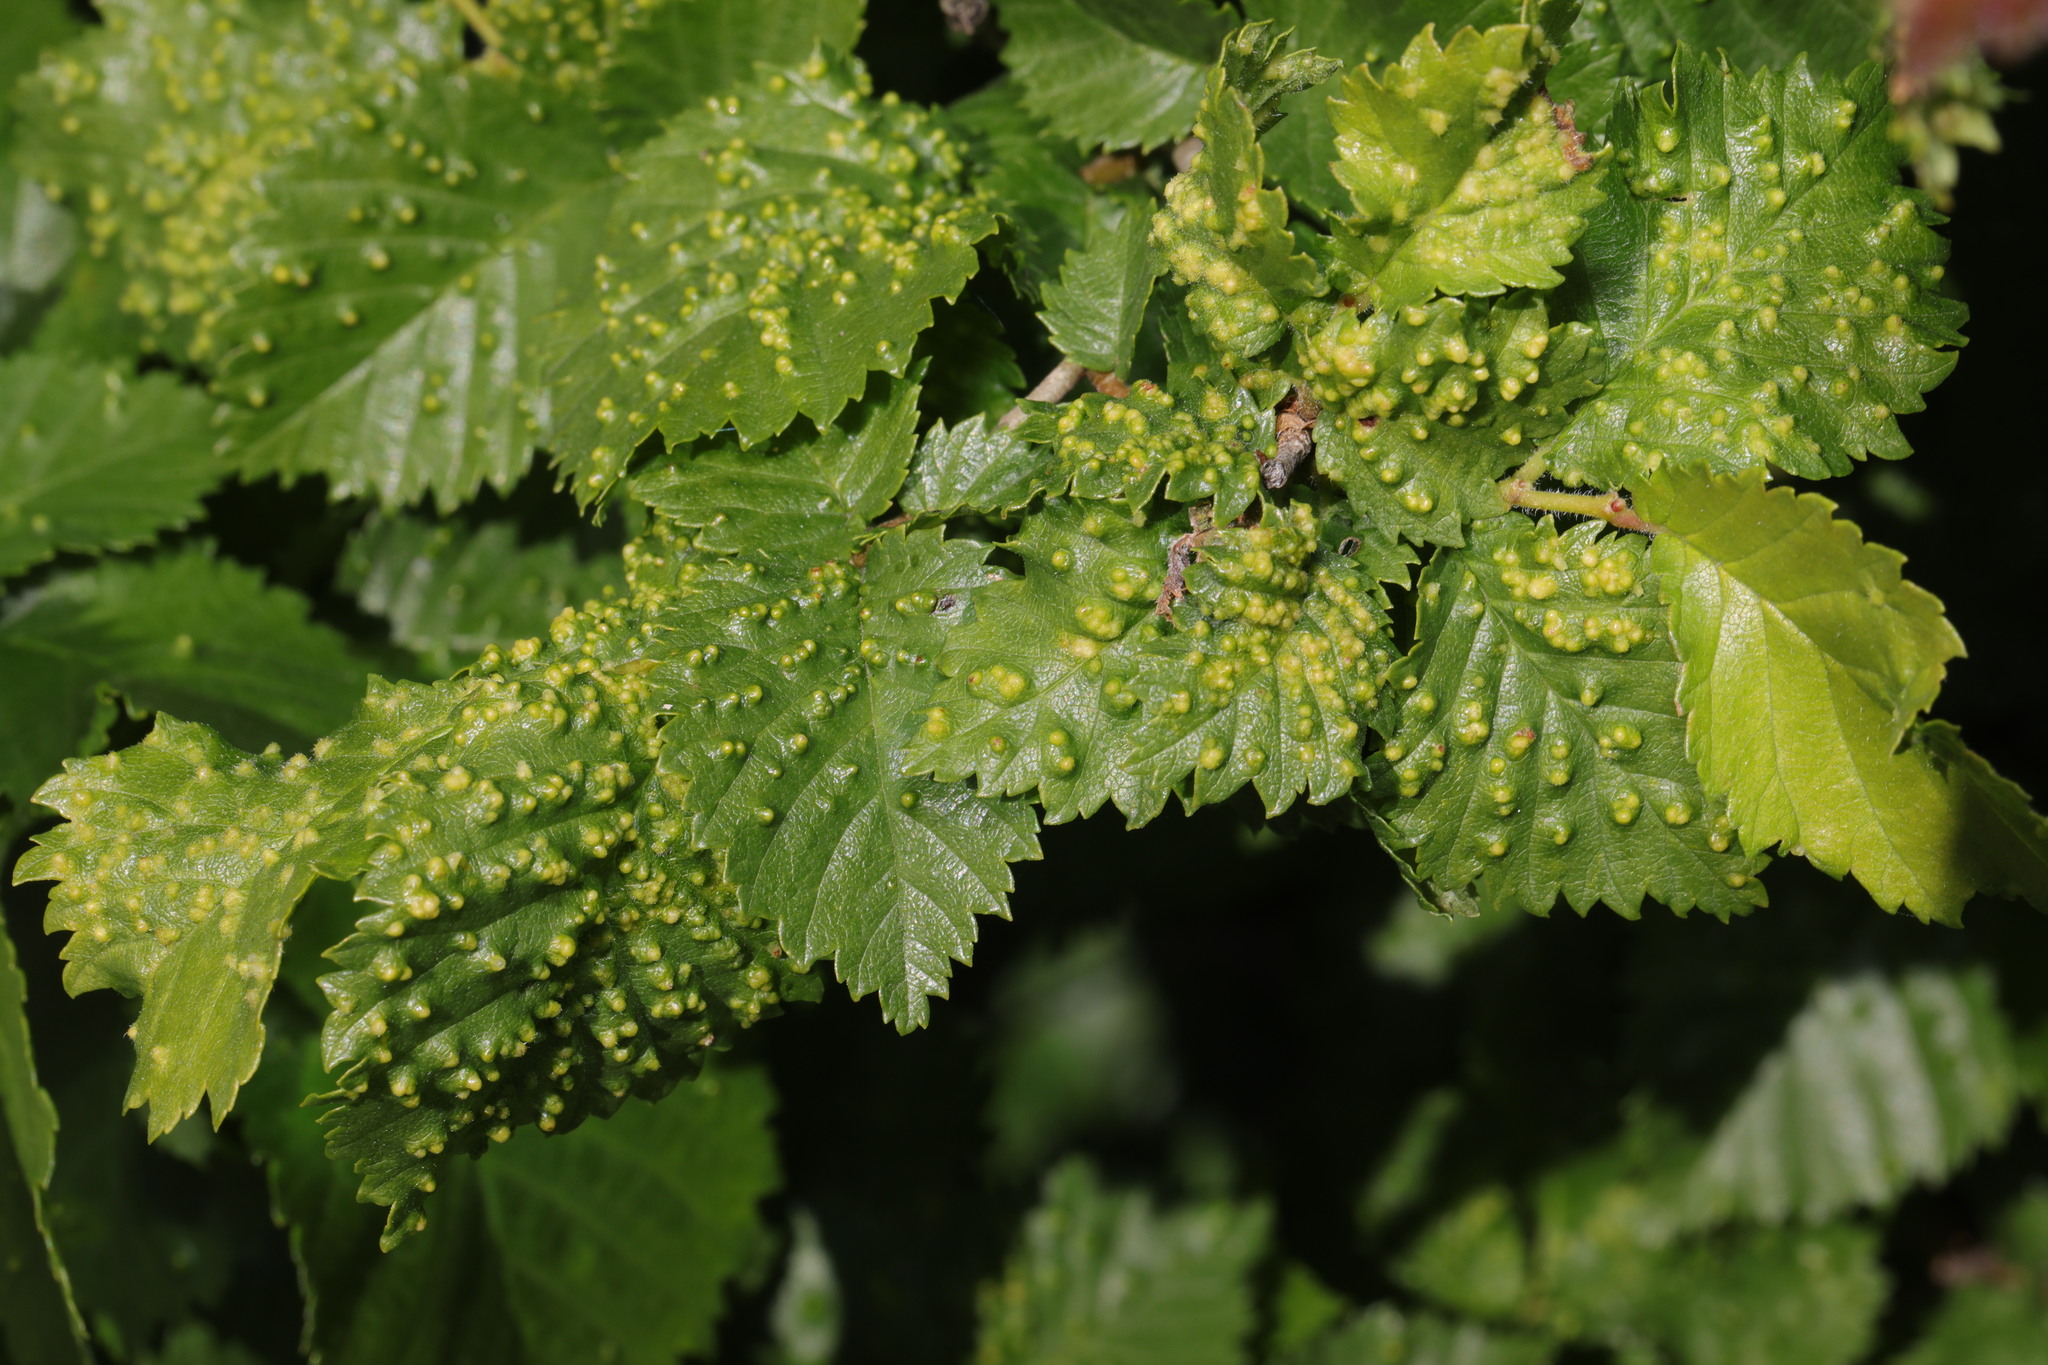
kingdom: Animalia
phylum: Arthropoda
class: Arachnida
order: Trombidiformes
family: Eriophyidae
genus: Aceria
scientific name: Aceria brevipunctata
